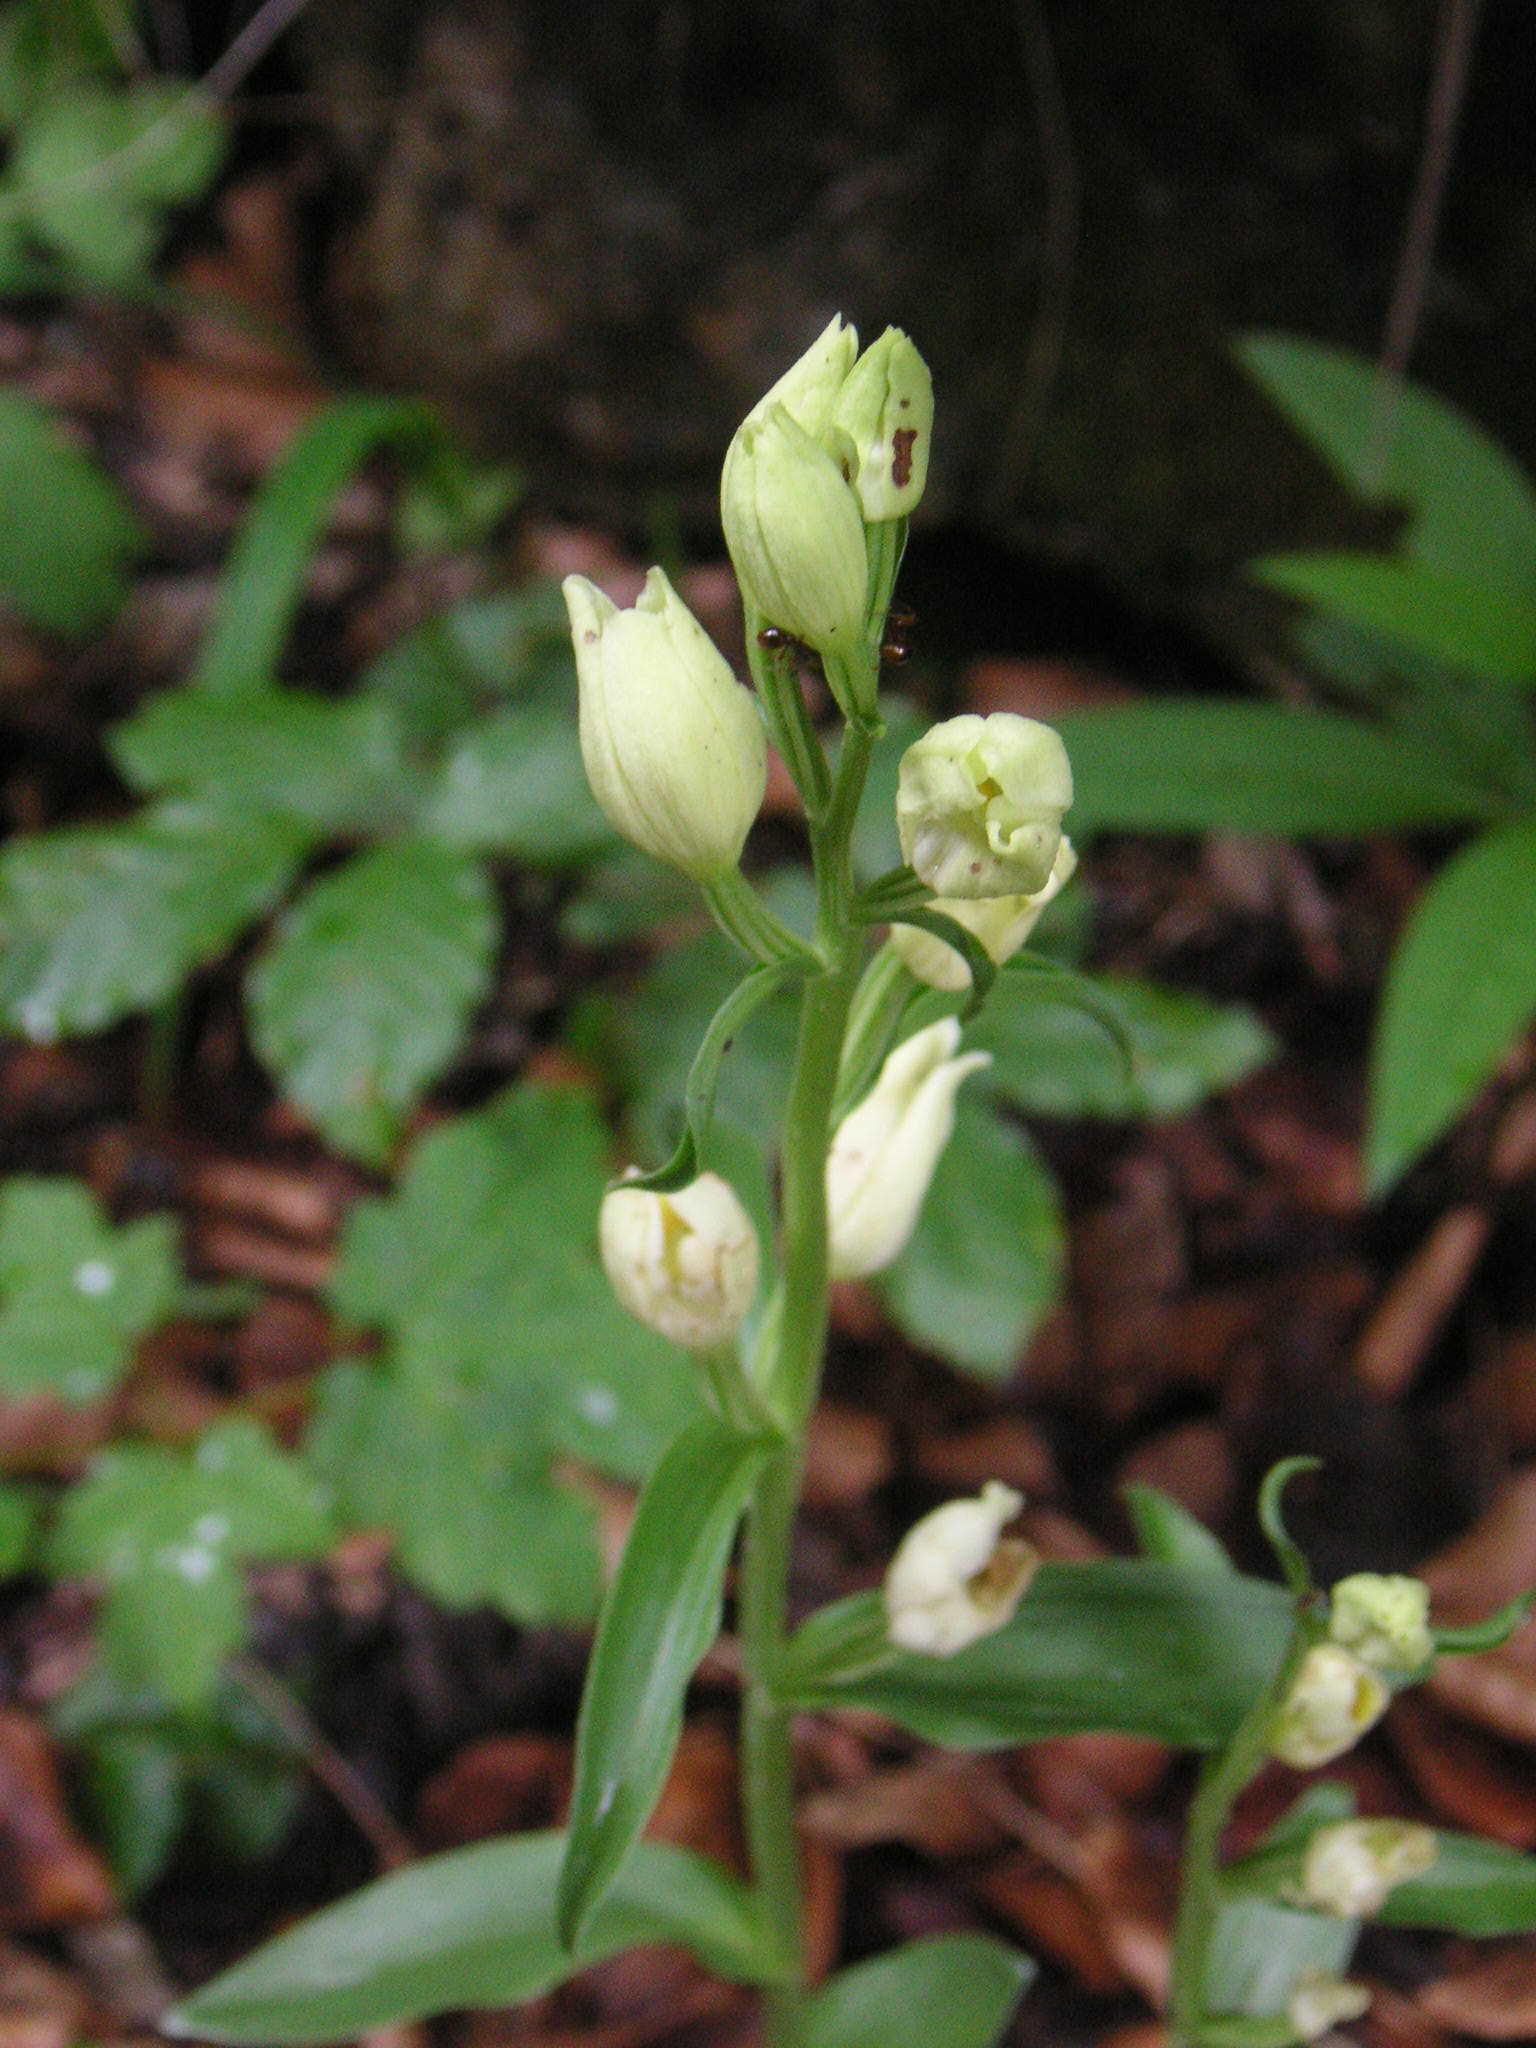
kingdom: Plantae
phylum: Tracheophyta
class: Liliopsida
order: Asparagales
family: Orchidaceae
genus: Cephalanthera
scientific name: Cephalanthera damasonium
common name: White helleborine
